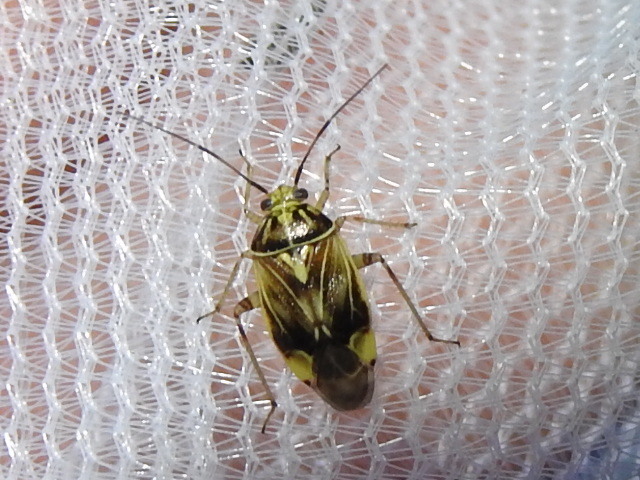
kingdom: Animalia
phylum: Arthropoda
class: Insecta
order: Hemiptera
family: Miridae
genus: Lygus
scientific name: Lygus lineolaris
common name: North american tarnished plant bug
